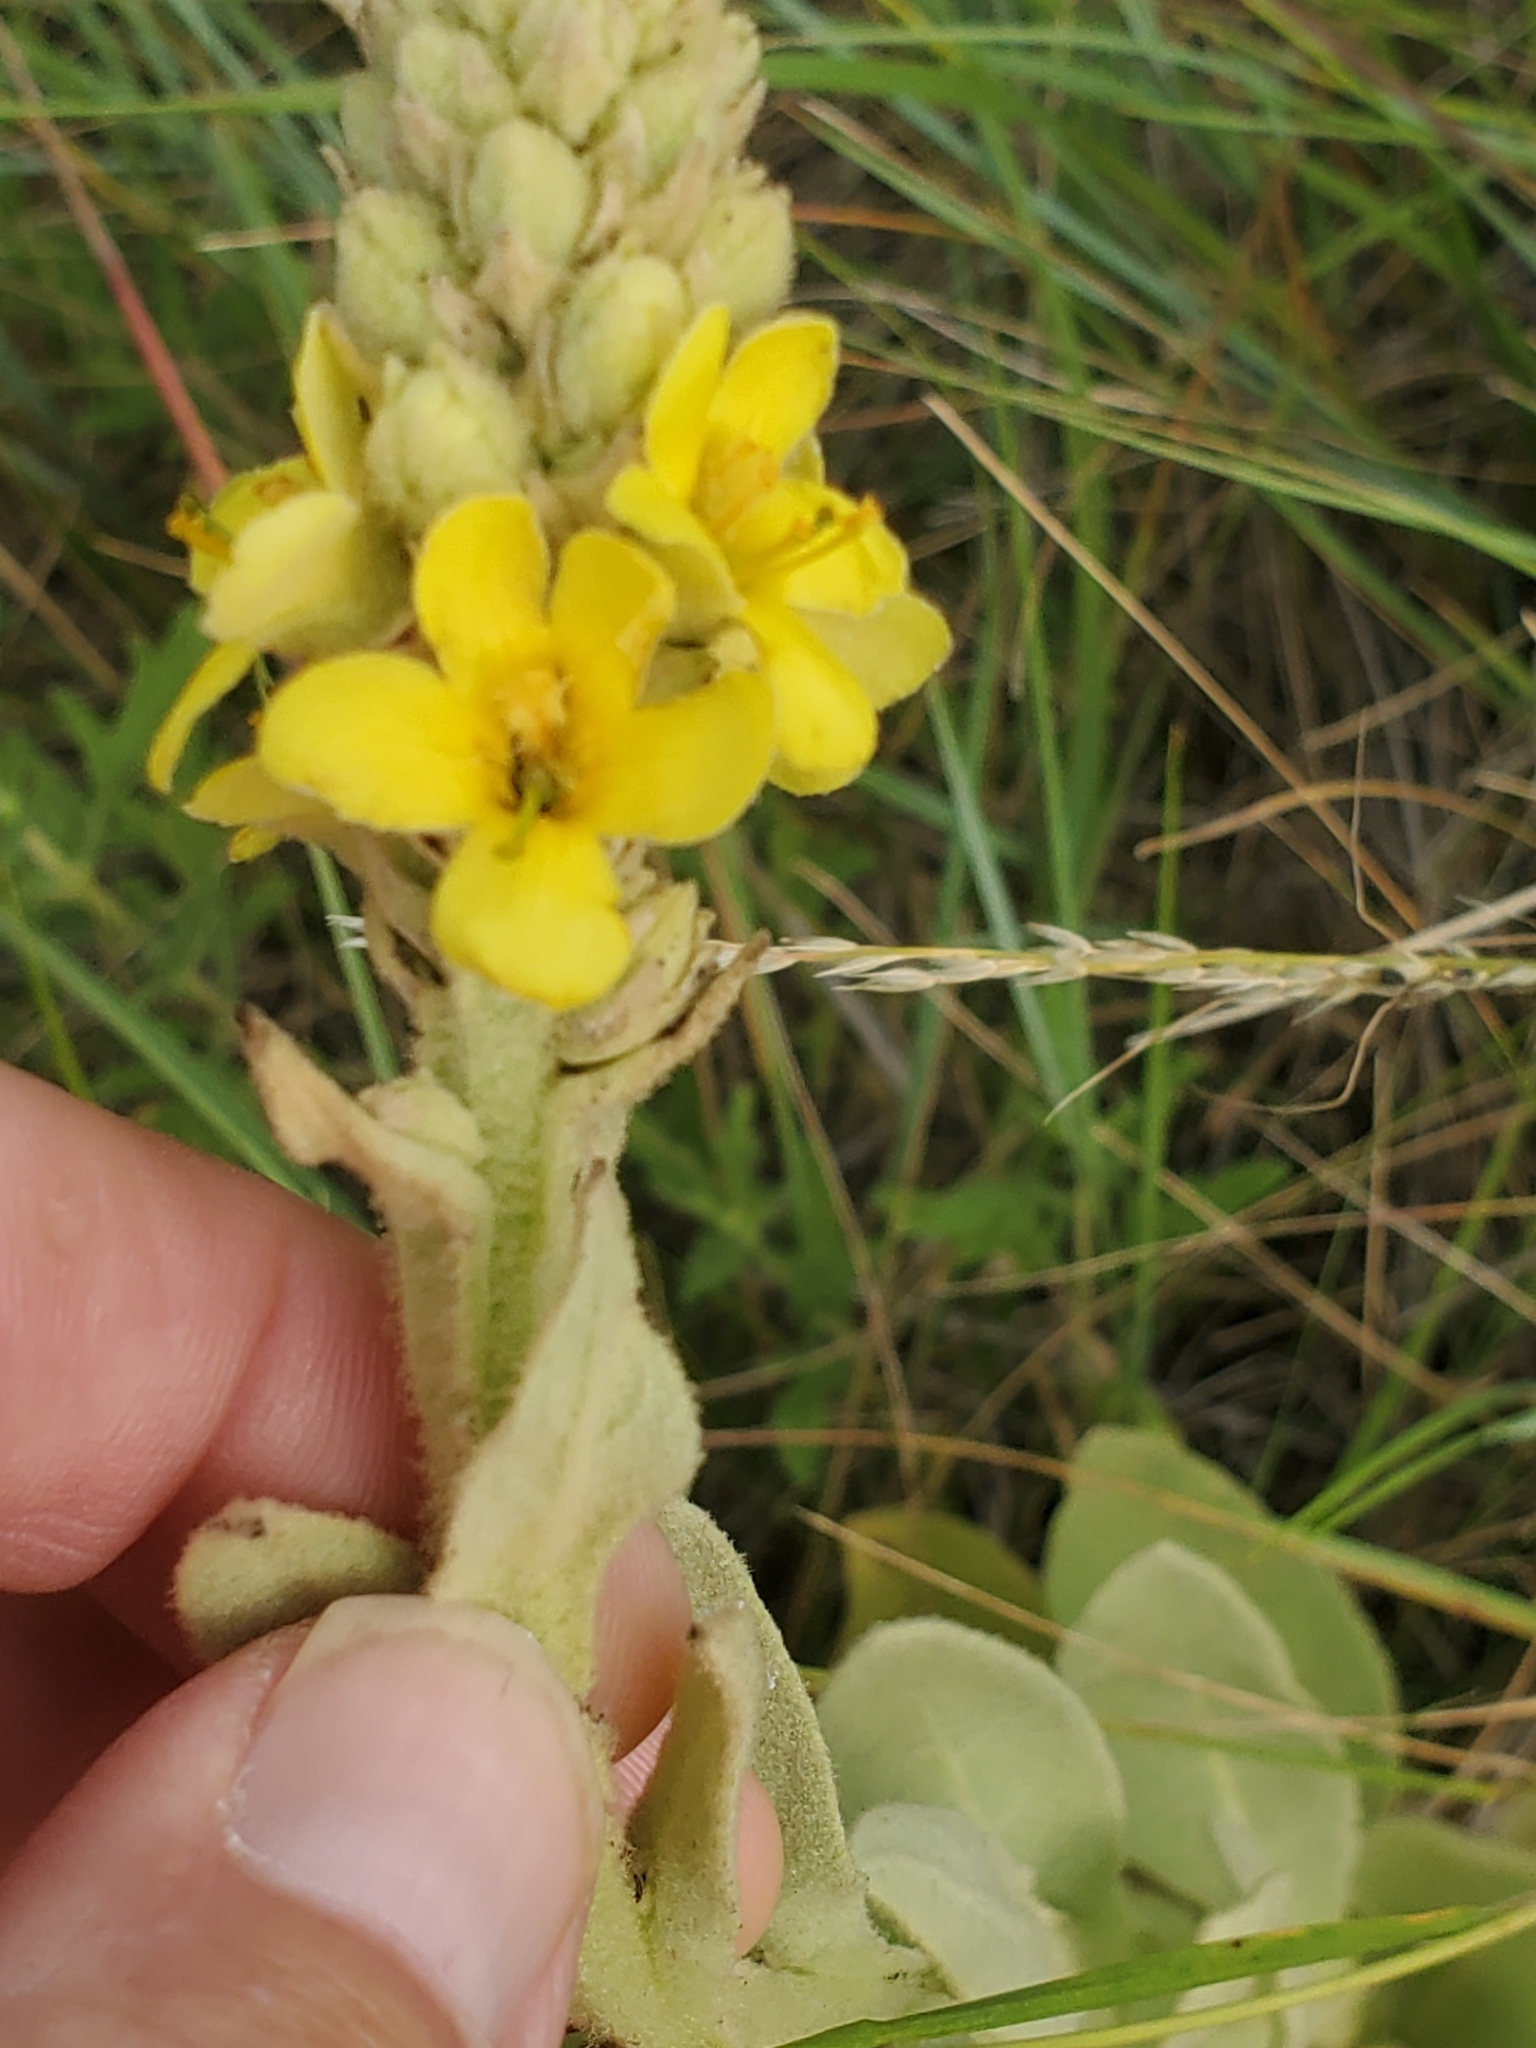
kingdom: Plantae
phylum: Tracheophyta
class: Magnoliopsida
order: Lamiales
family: Scrophulariaceae
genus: Verbascum
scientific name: Verbascum thapsus
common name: Common mullein
